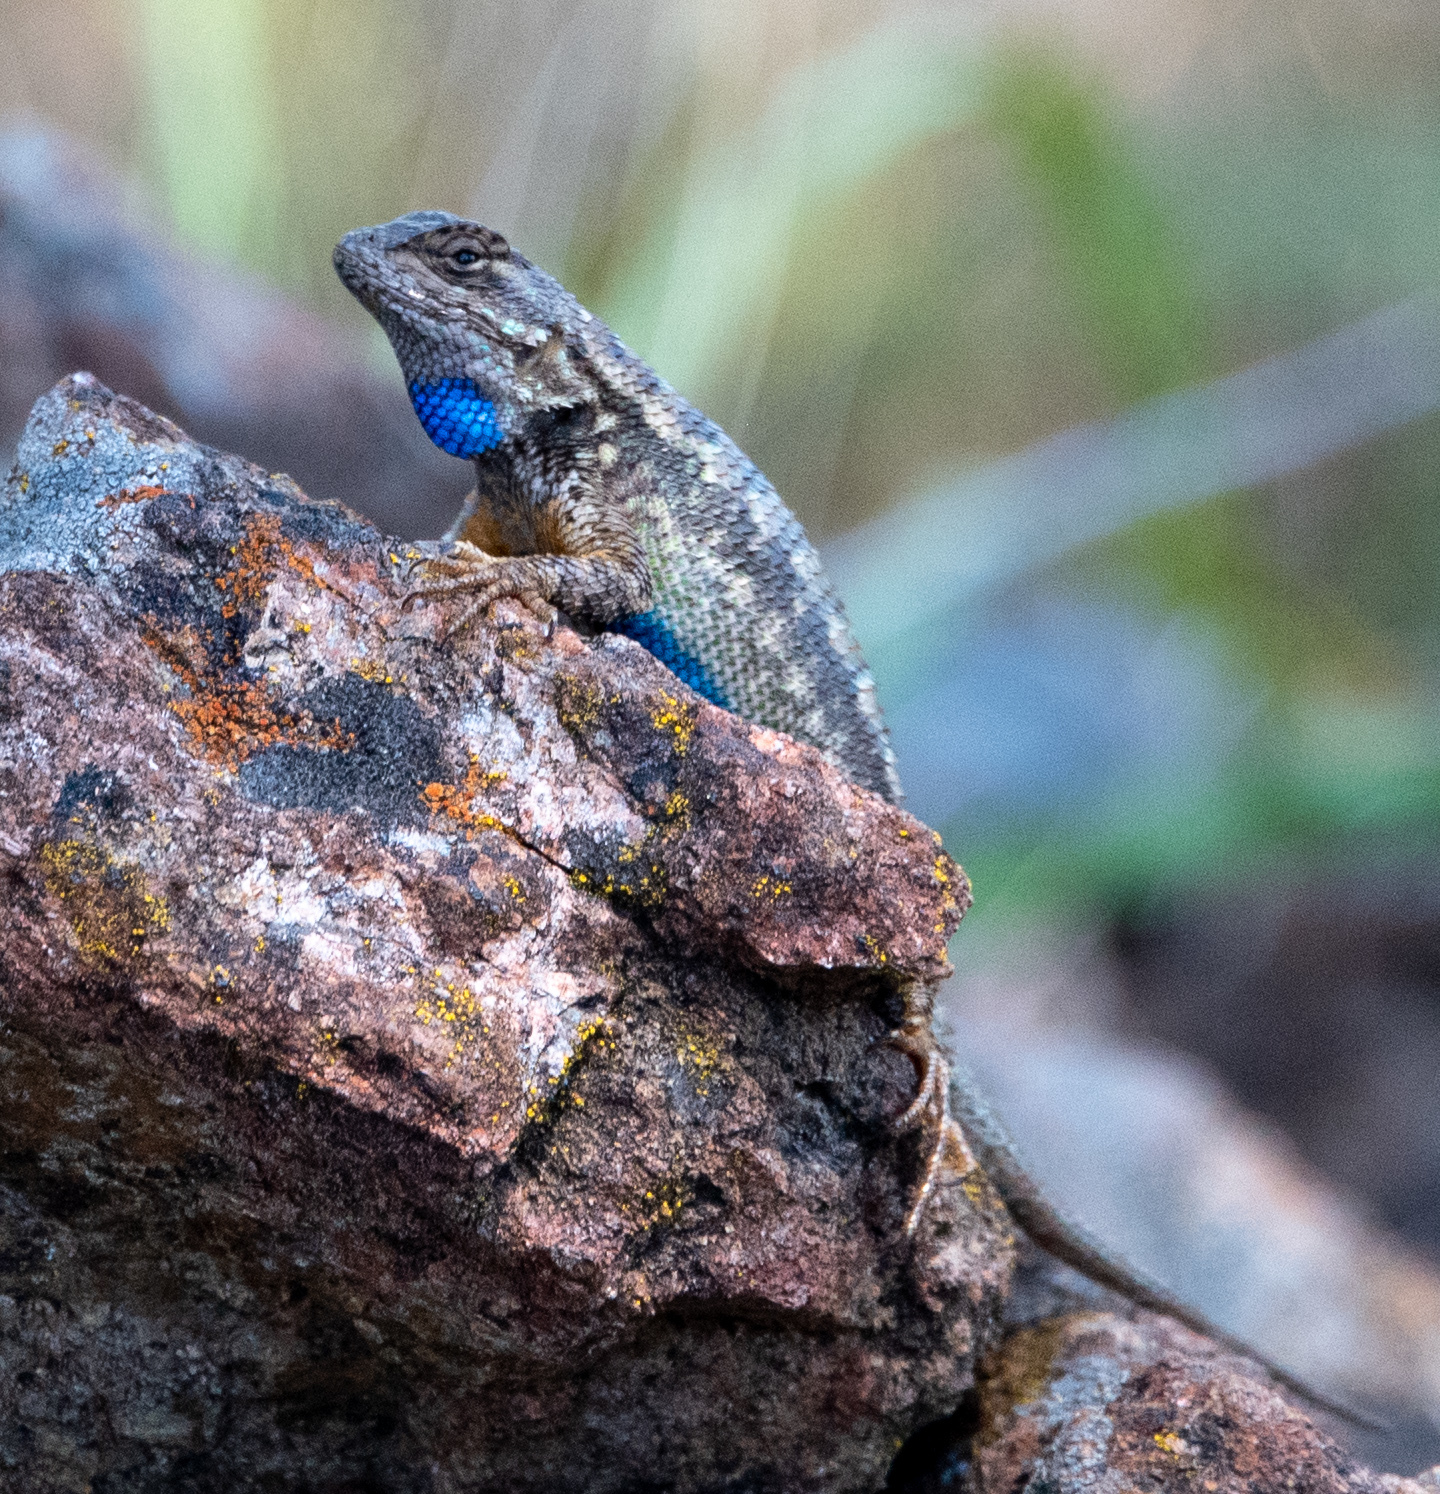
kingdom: Animalia
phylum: Chordata
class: Squamata
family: Phrynosomatidae
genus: Sceloporus
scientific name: Sceloporus occidentalis
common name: Western fence lizard
